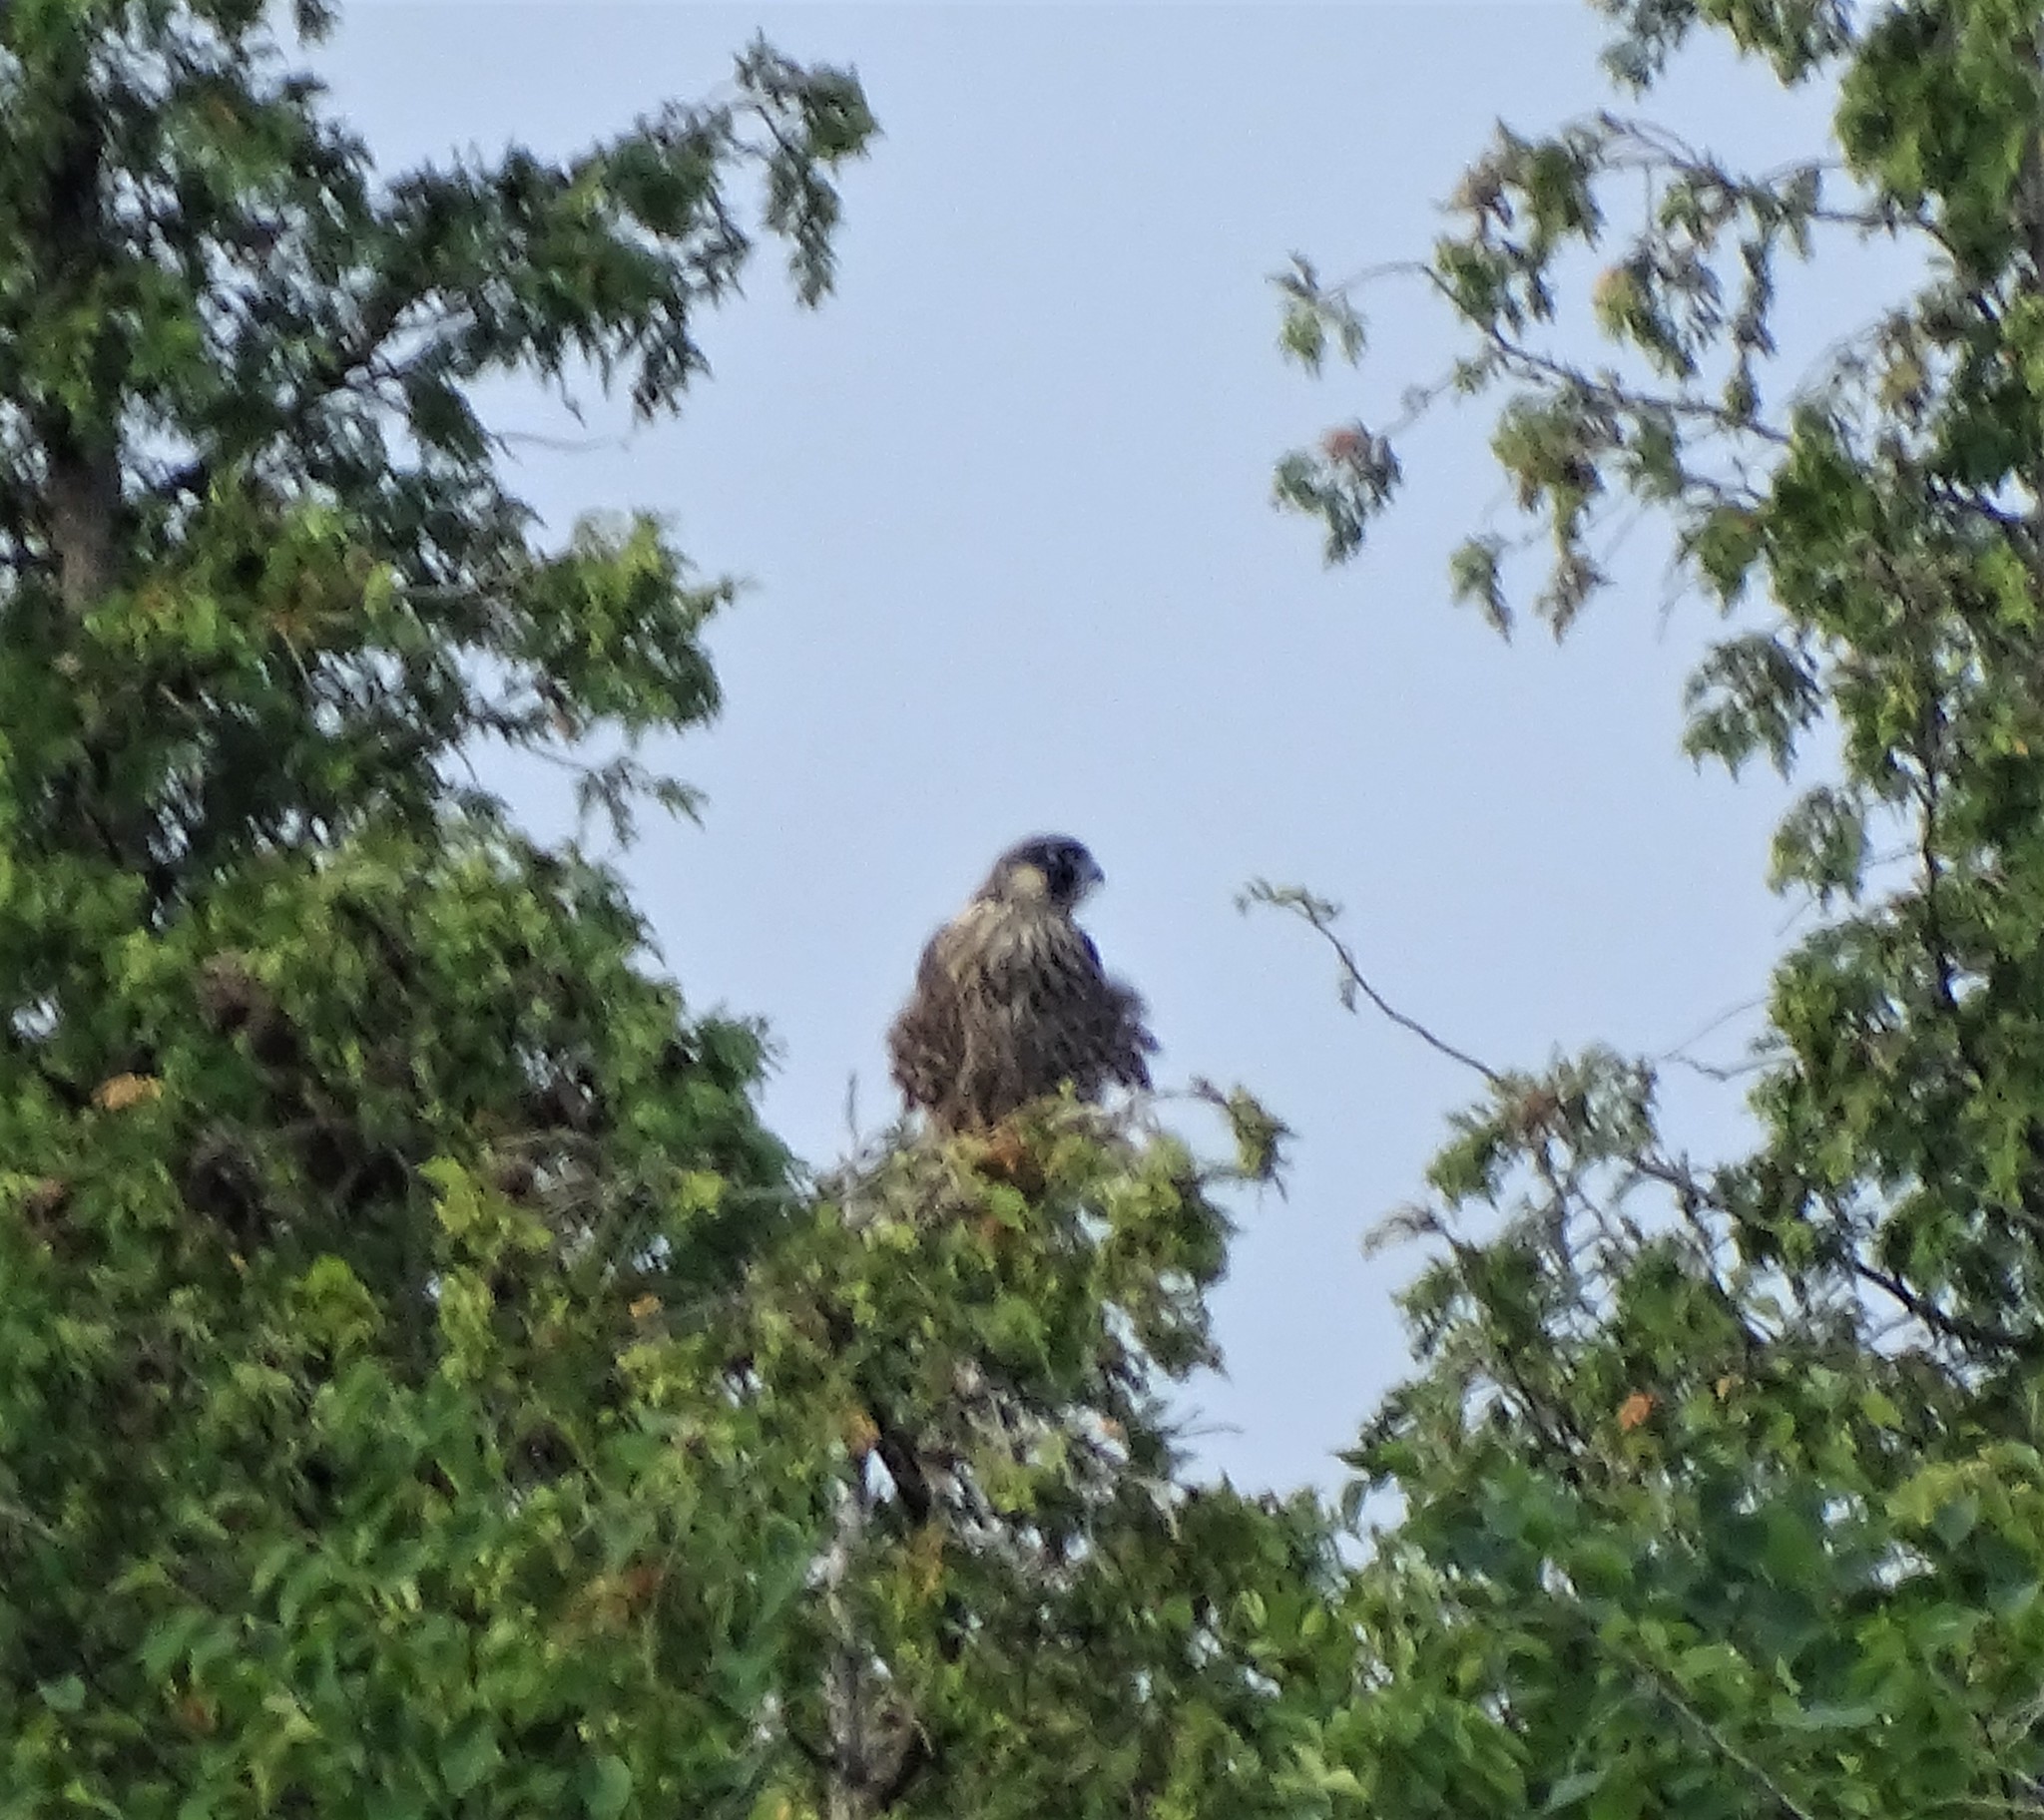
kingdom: Animalia
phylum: Chordata
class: Aves
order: Falconiformes
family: Falconidae
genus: Falco
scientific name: Falco peregrinus
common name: Peregrine falcon
